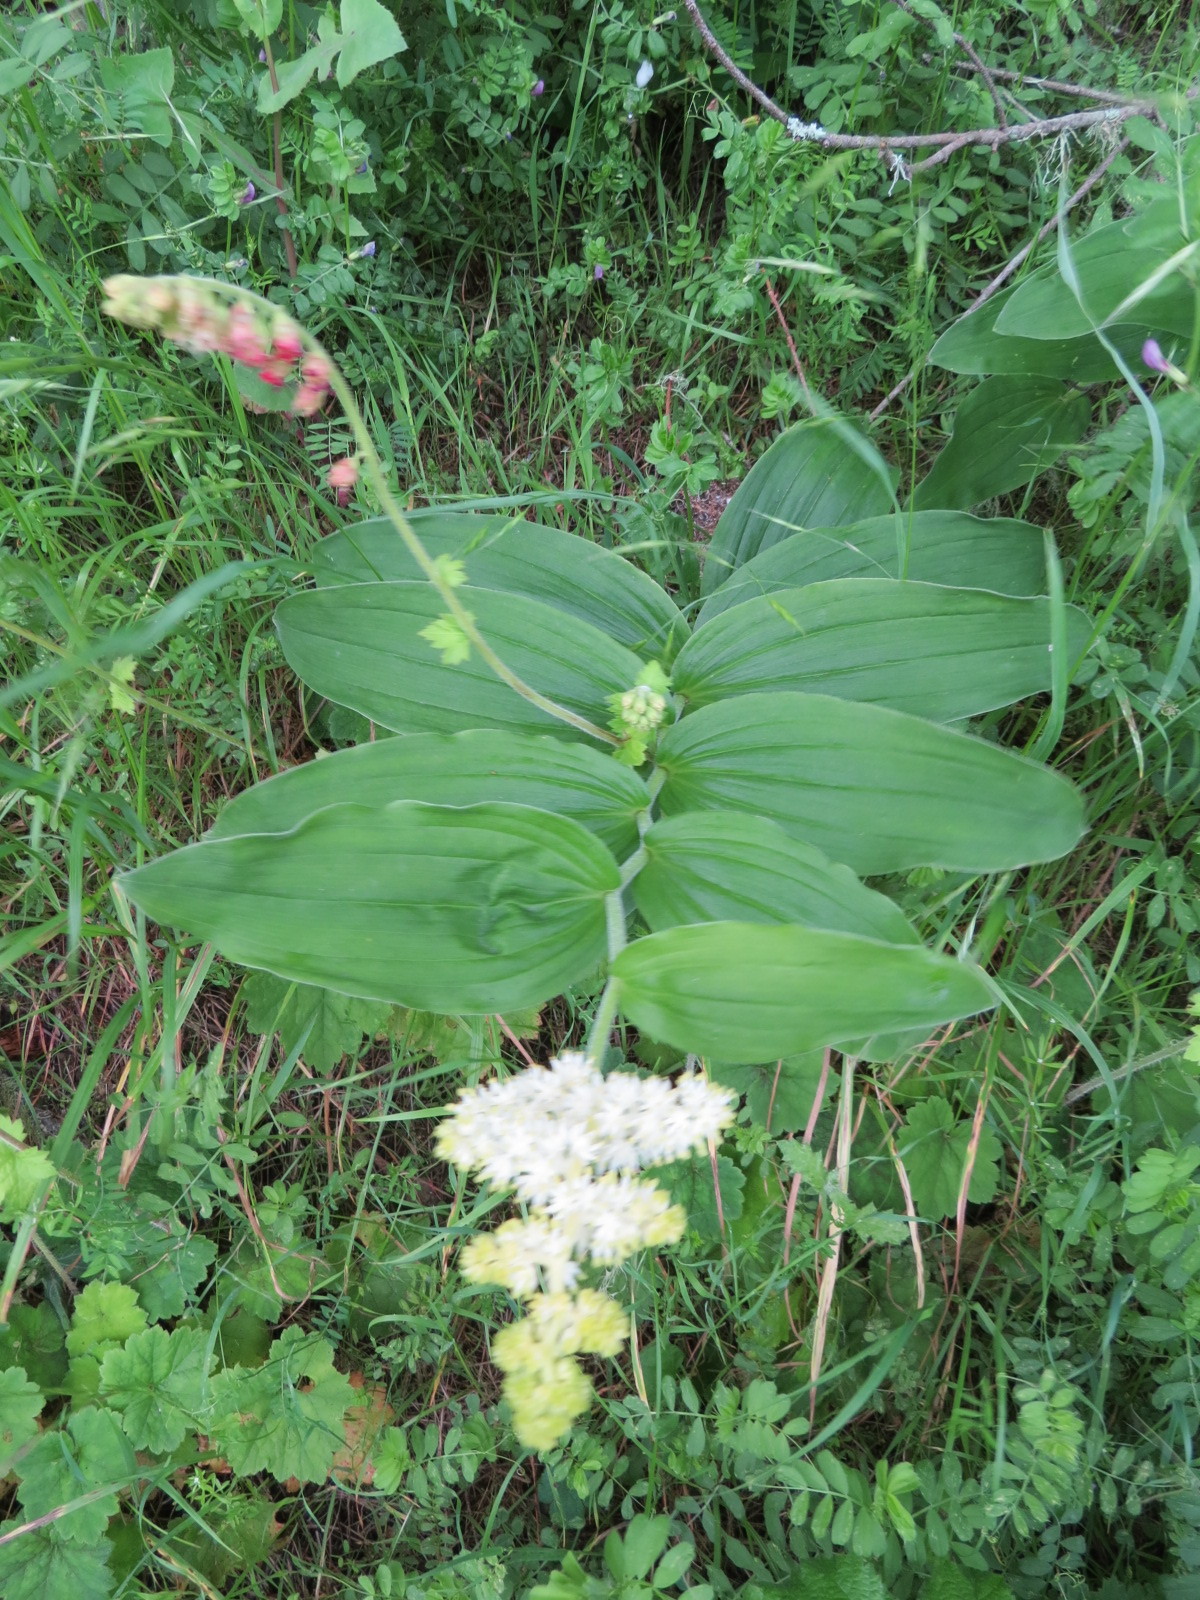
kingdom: Plantae
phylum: Tracheophyta
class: Liliopsida
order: Asparagales
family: Asparagaceae
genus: Maianthemum
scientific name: Maianthemum racemosum
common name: False spikenard
